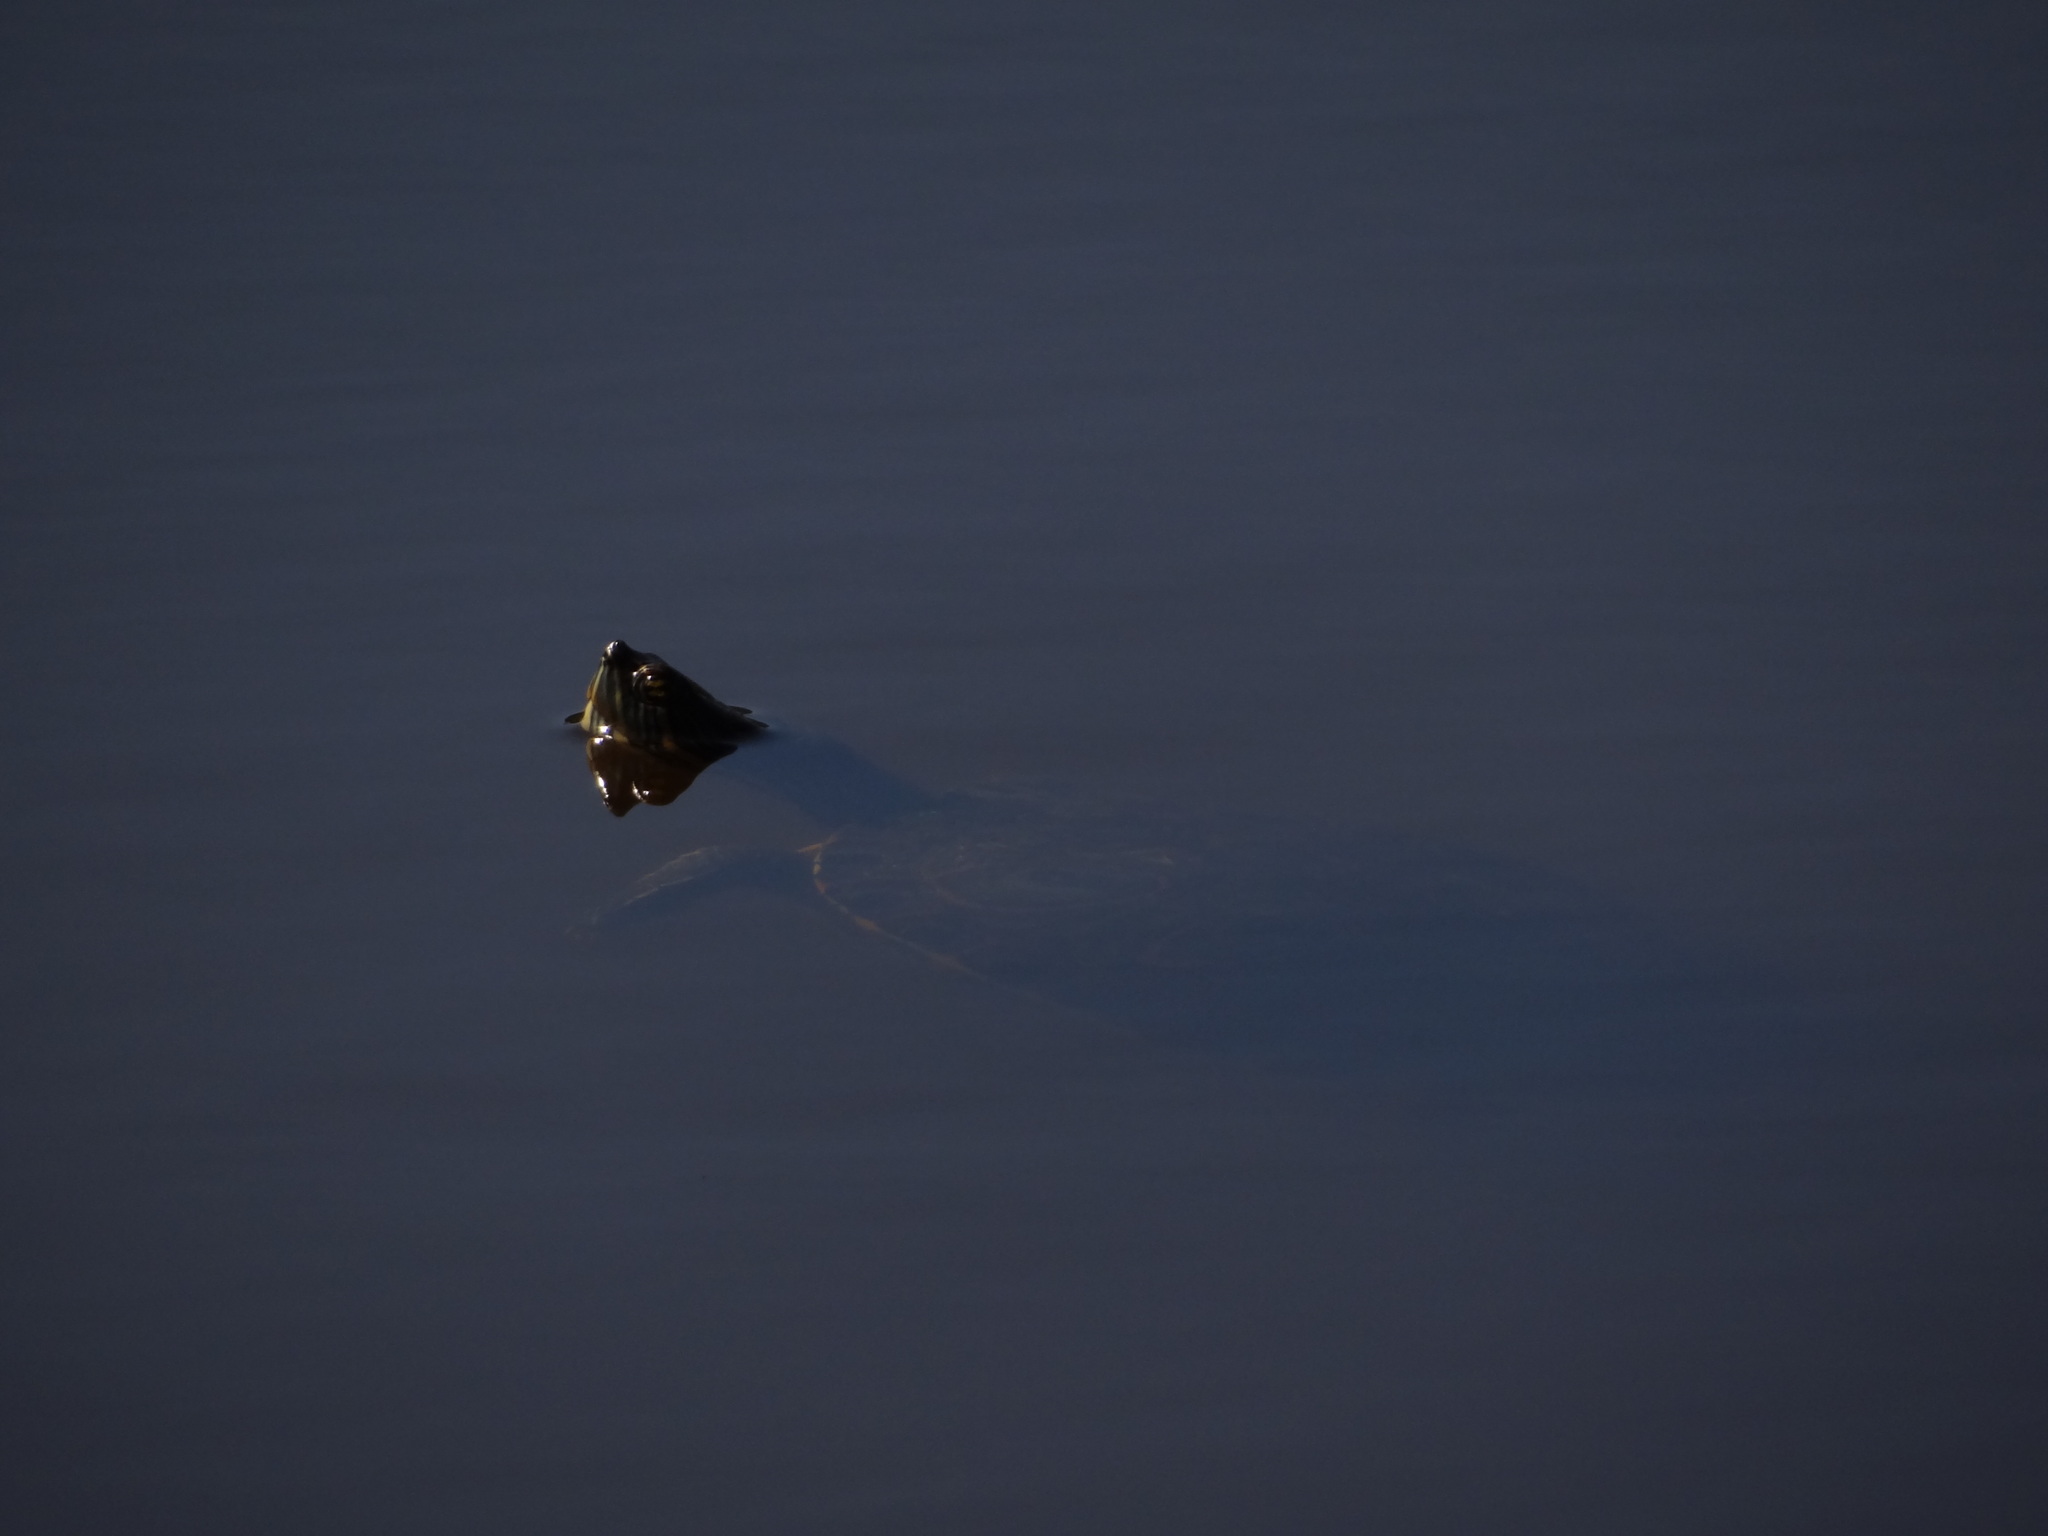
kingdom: Animalia
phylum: Chordata
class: Testudines
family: Emydidae
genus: Trachemys
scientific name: Trachemys venusta
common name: Mesoamerican slider
